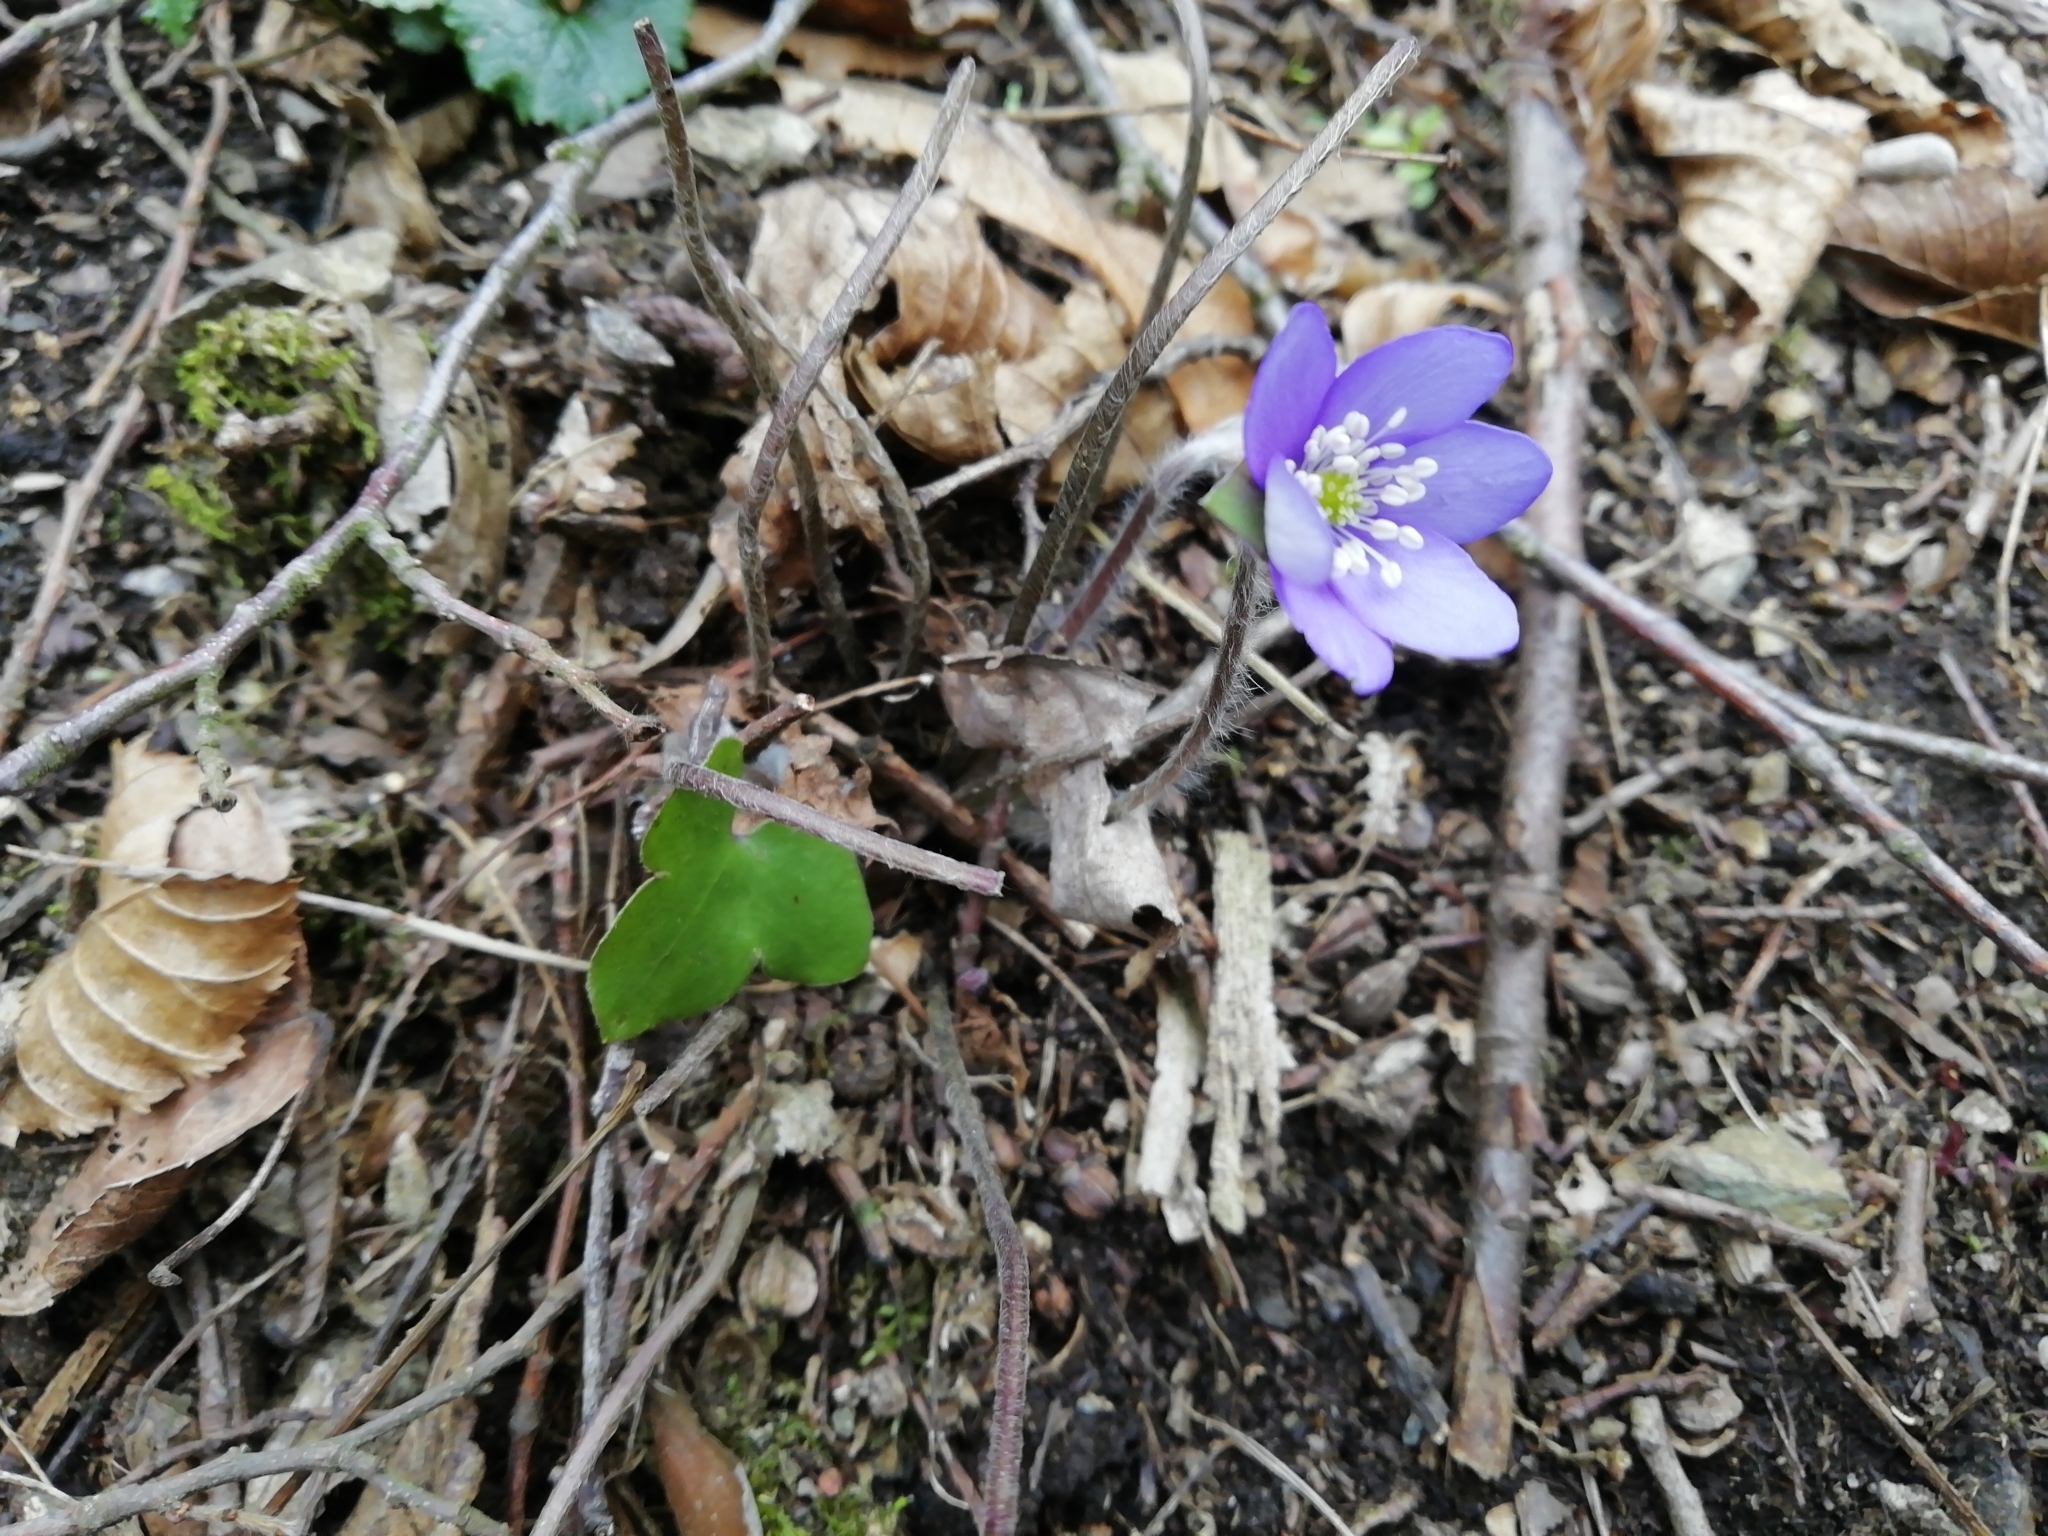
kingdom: Plantae
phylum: Tracheophyta
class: Magnoliopsida
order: Ranunculales
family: Ranunculaceae
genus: Hepatica
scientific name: Hepatica nobilis
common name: Liverleaf
